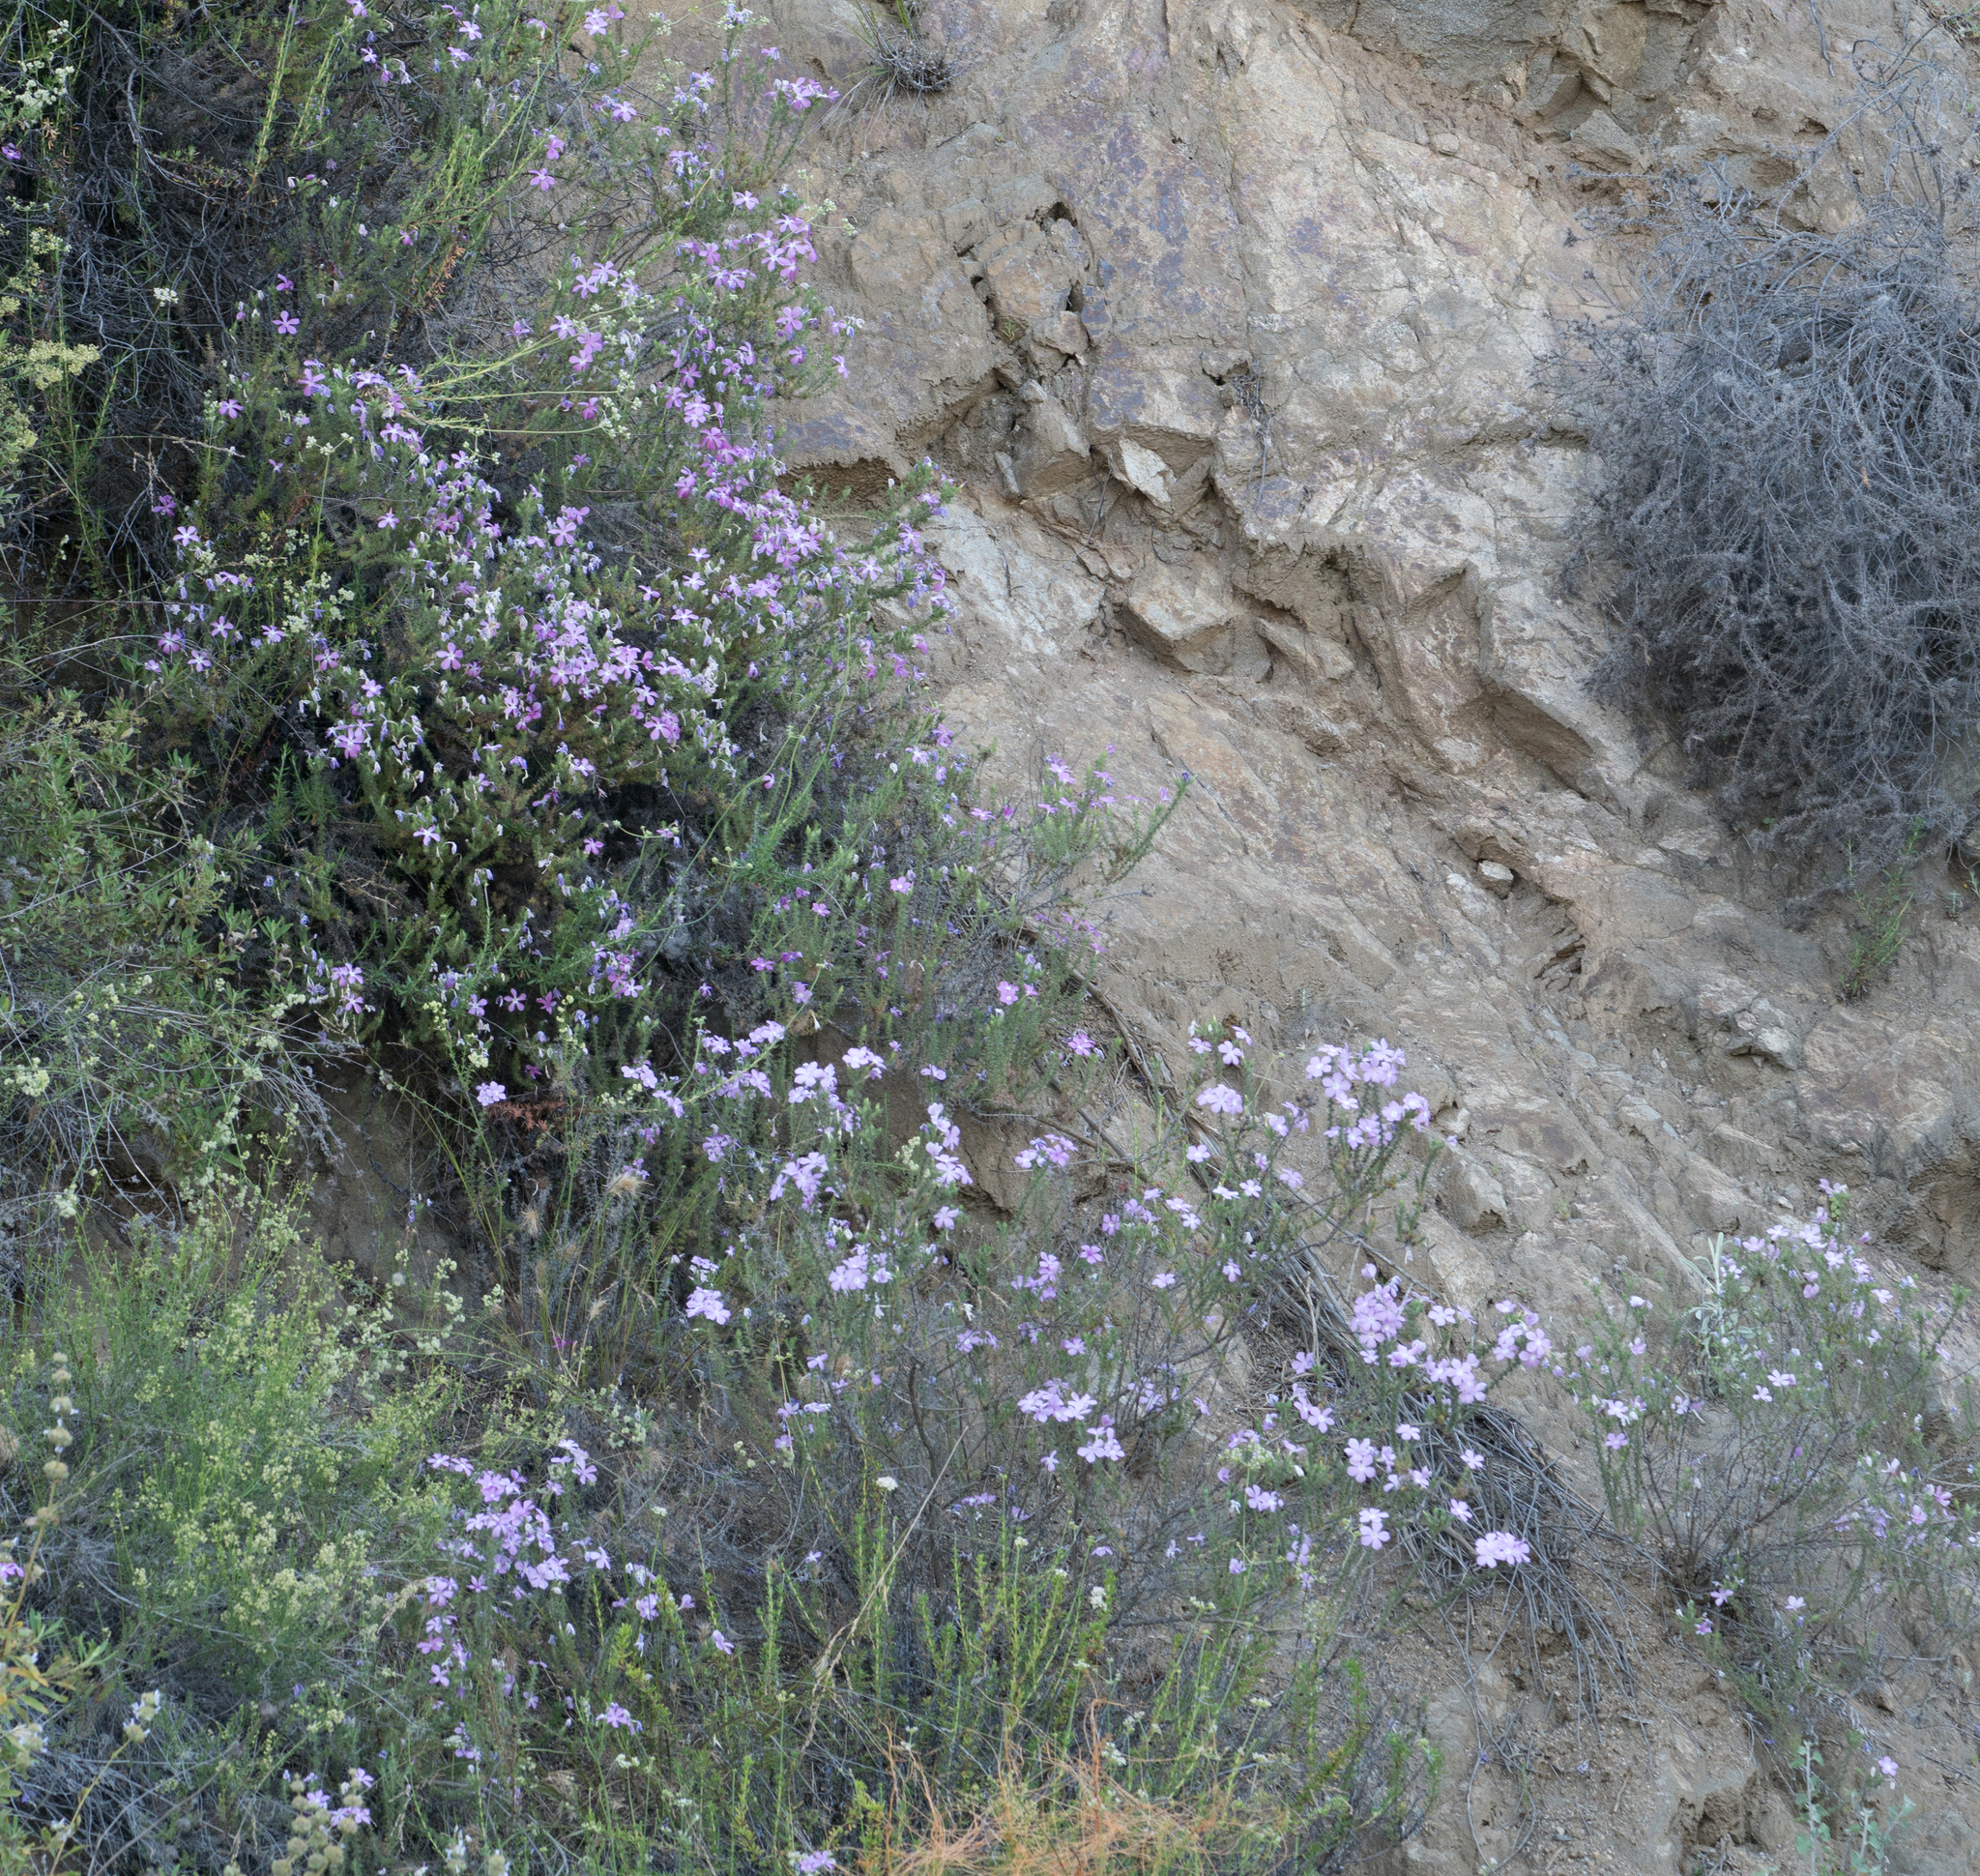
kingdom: Plantae
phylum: Tracheophyta
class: Magnoliopsida
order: Ericales
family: Polemoniaceae
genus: Linanthus
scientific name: Linanthus californicus
